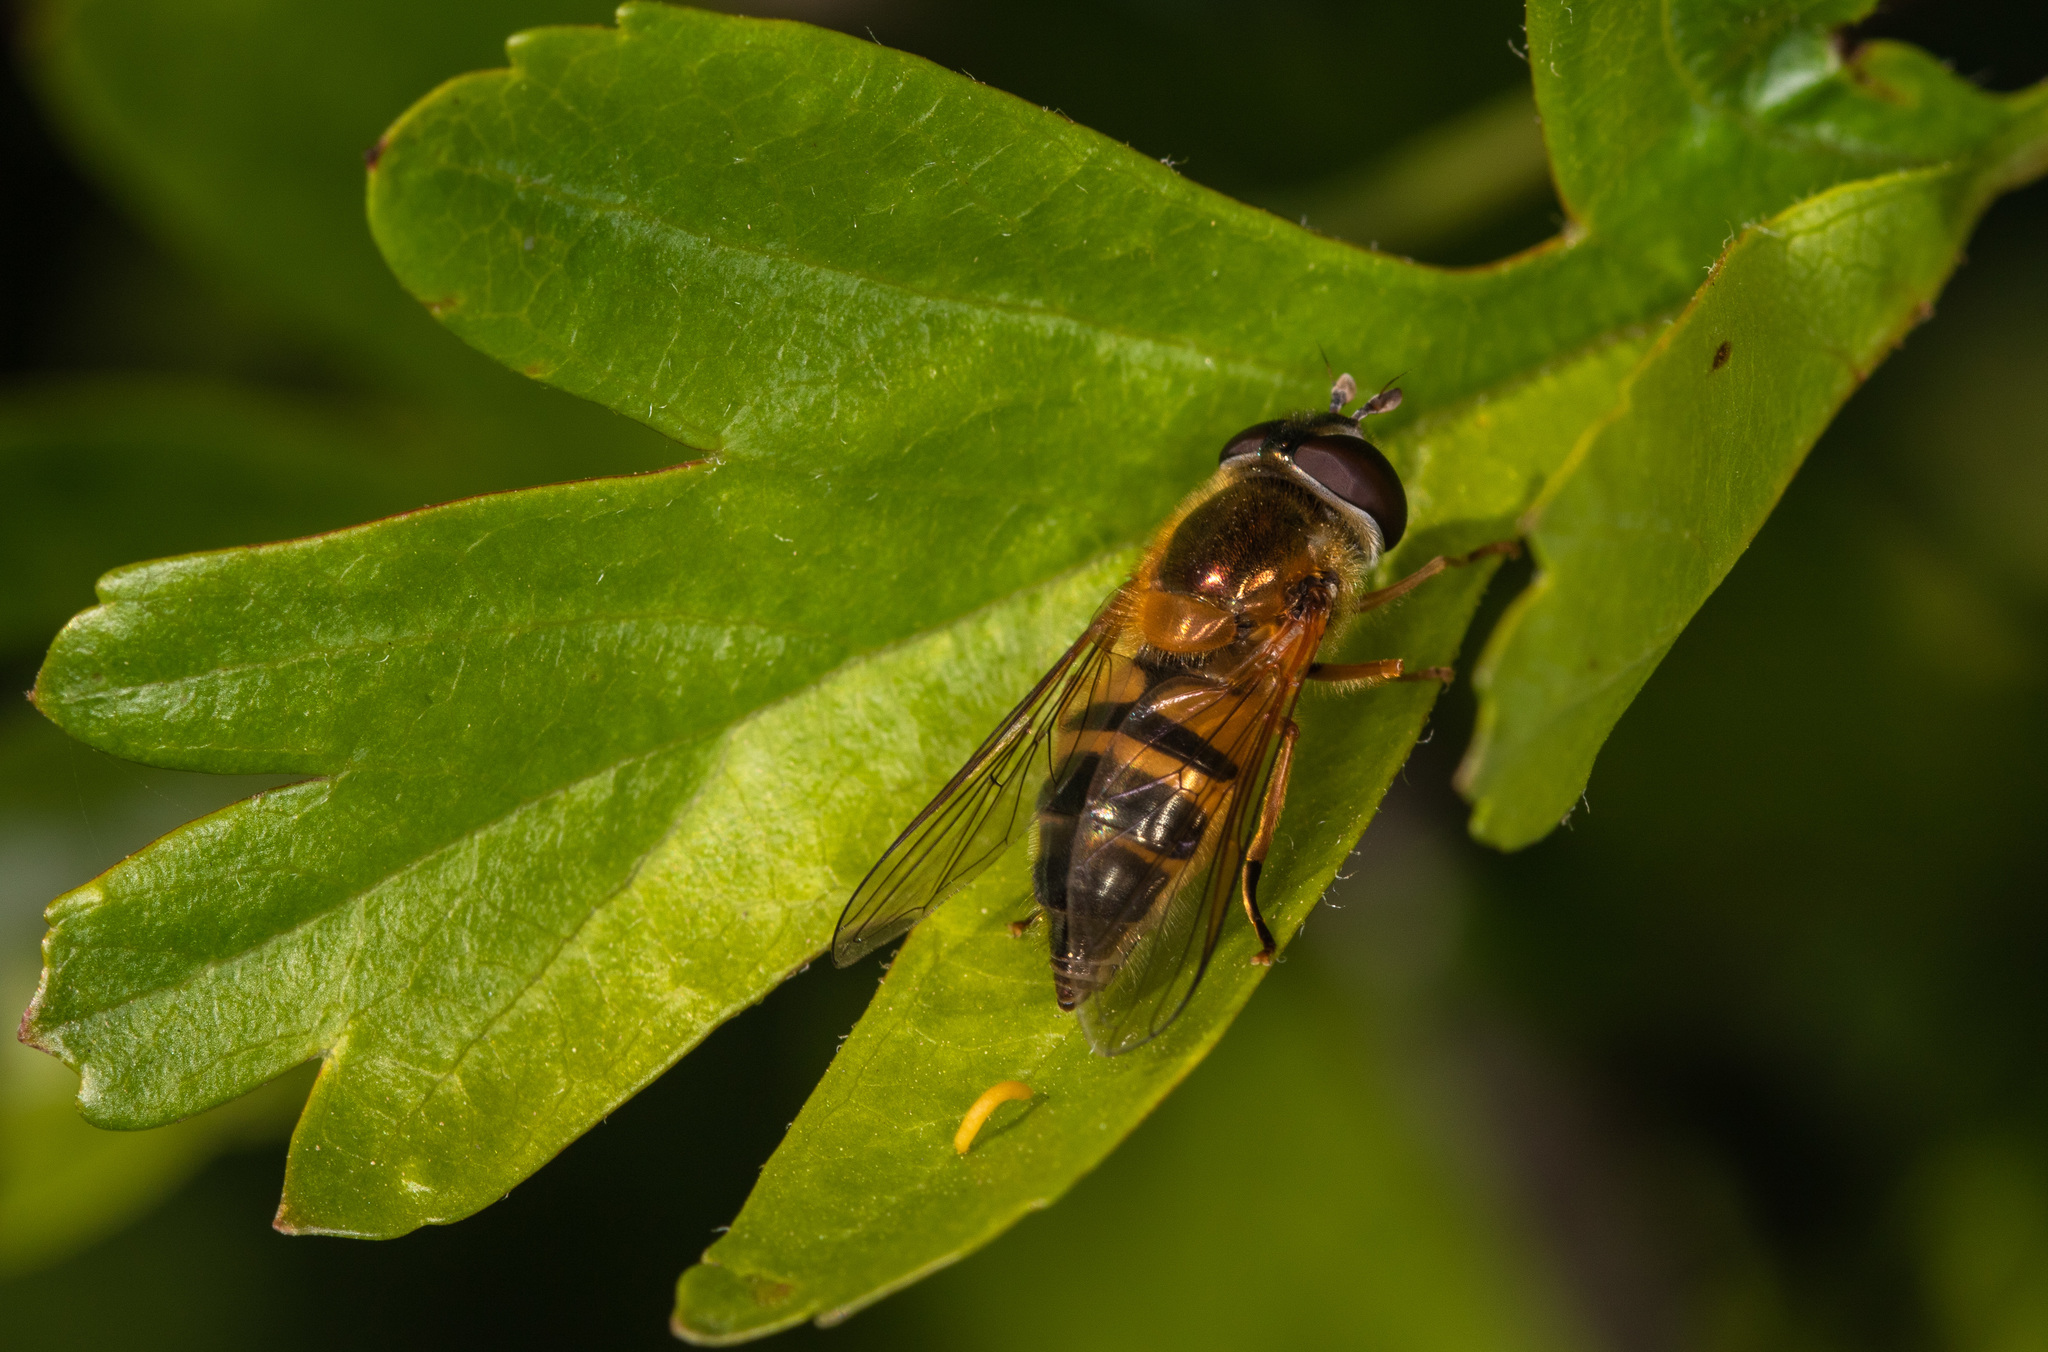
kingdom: Animalia
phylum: Arthropoda
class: Insecta
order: Diptera
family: Syrphidae
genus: Epistrophe
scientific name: Epistrophe eligans
